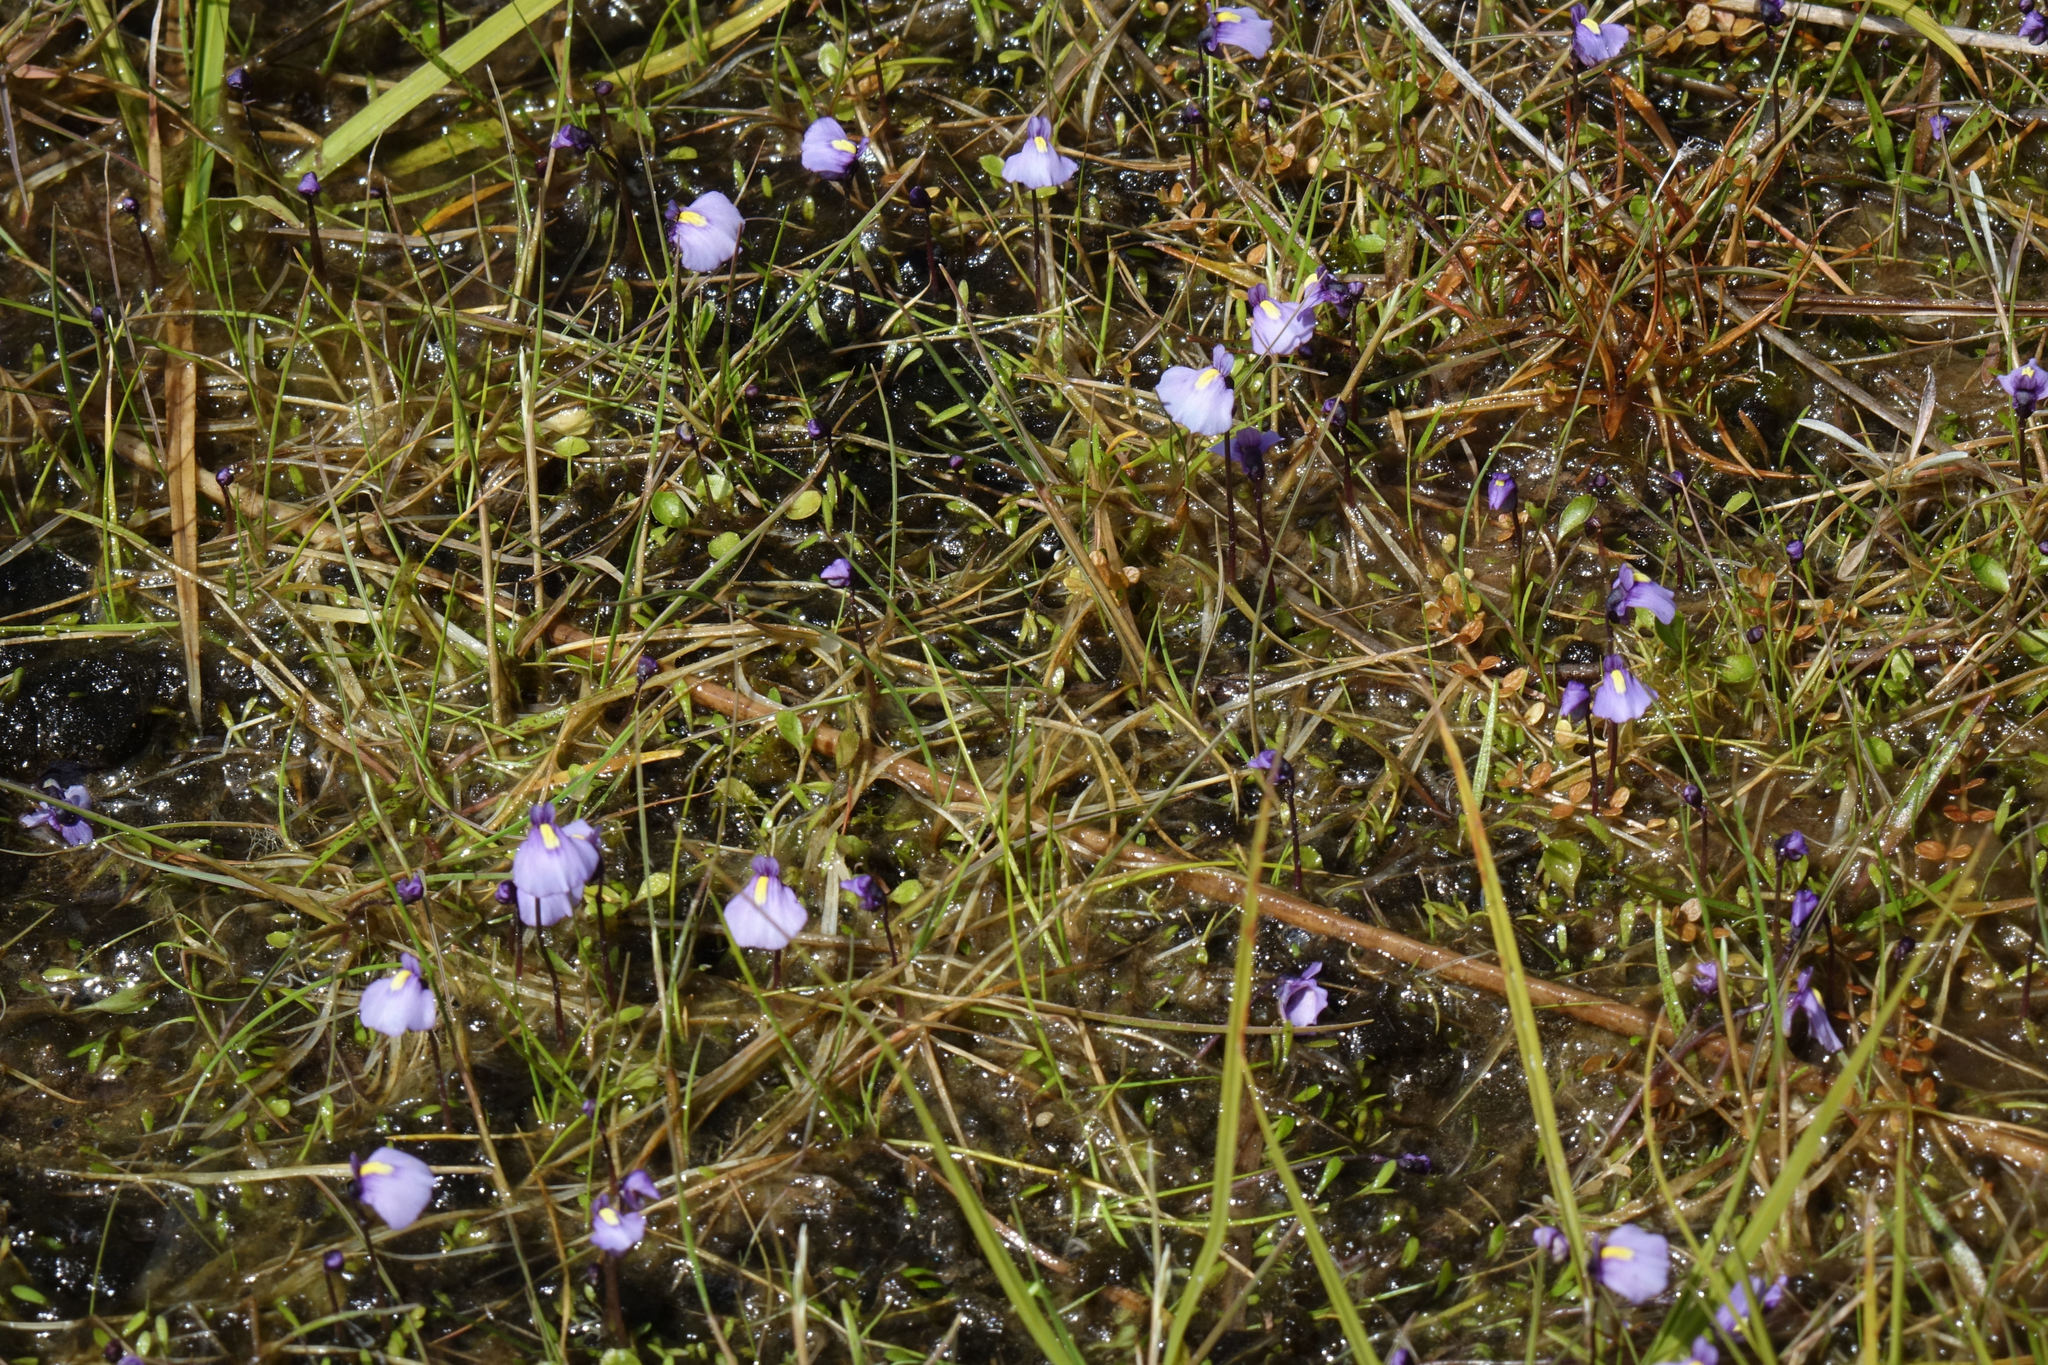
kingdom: Plantae
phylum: Tracheophyta
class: Magnoliopsida
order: Lamiales
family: Lentibulariaceae
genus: Utricularia
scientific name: Utricularia dichotoma
